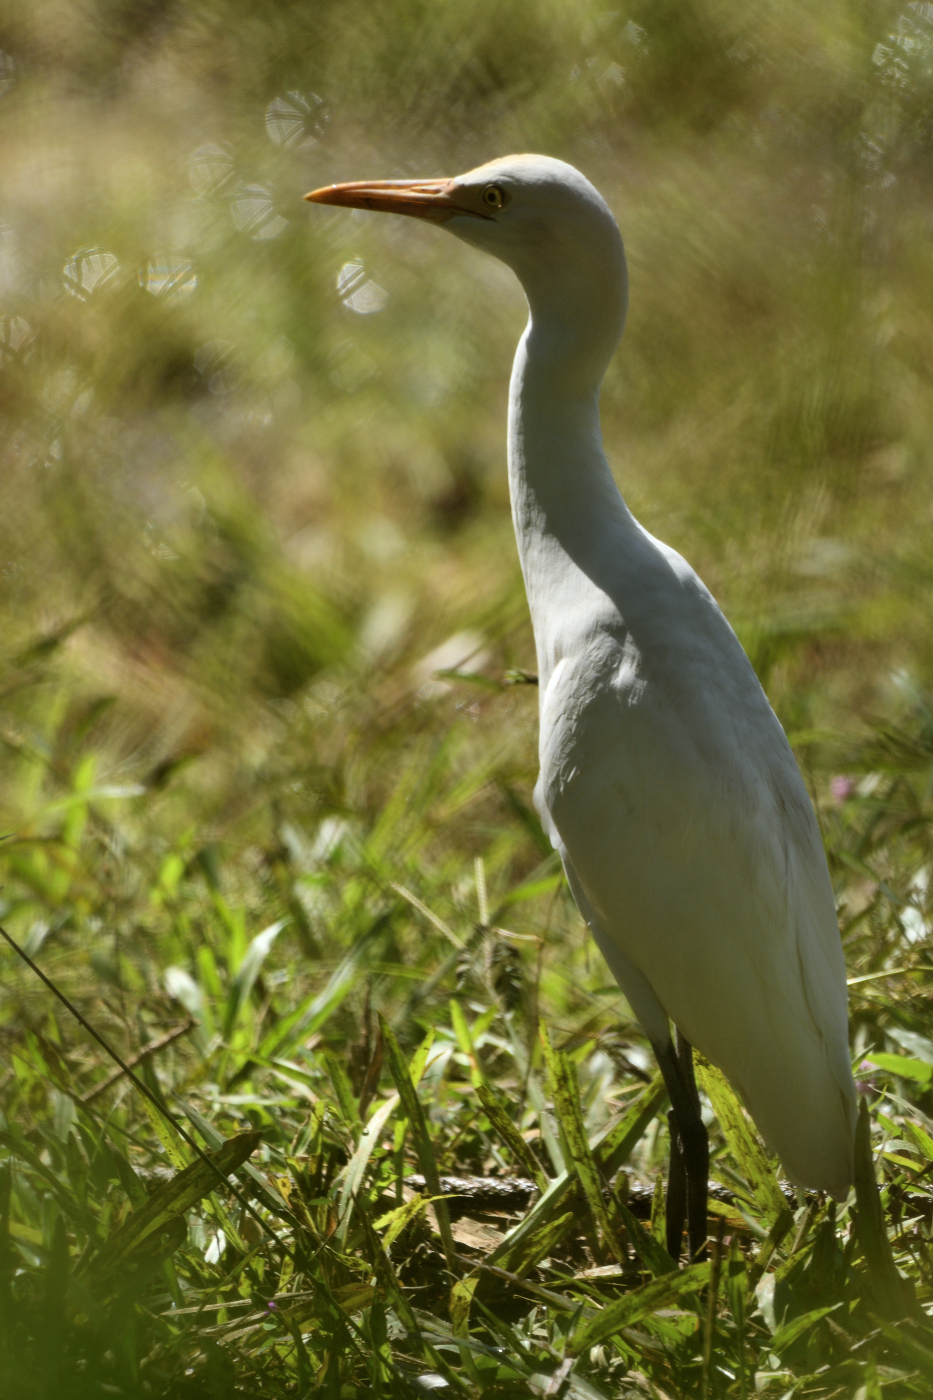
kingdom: Animalia
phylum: Chordata
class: Aves
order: Pelecaniformes
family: Ardeidae
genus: Bubulcus
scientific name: Bubulcus coromandus
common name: Eastern cattle egret
